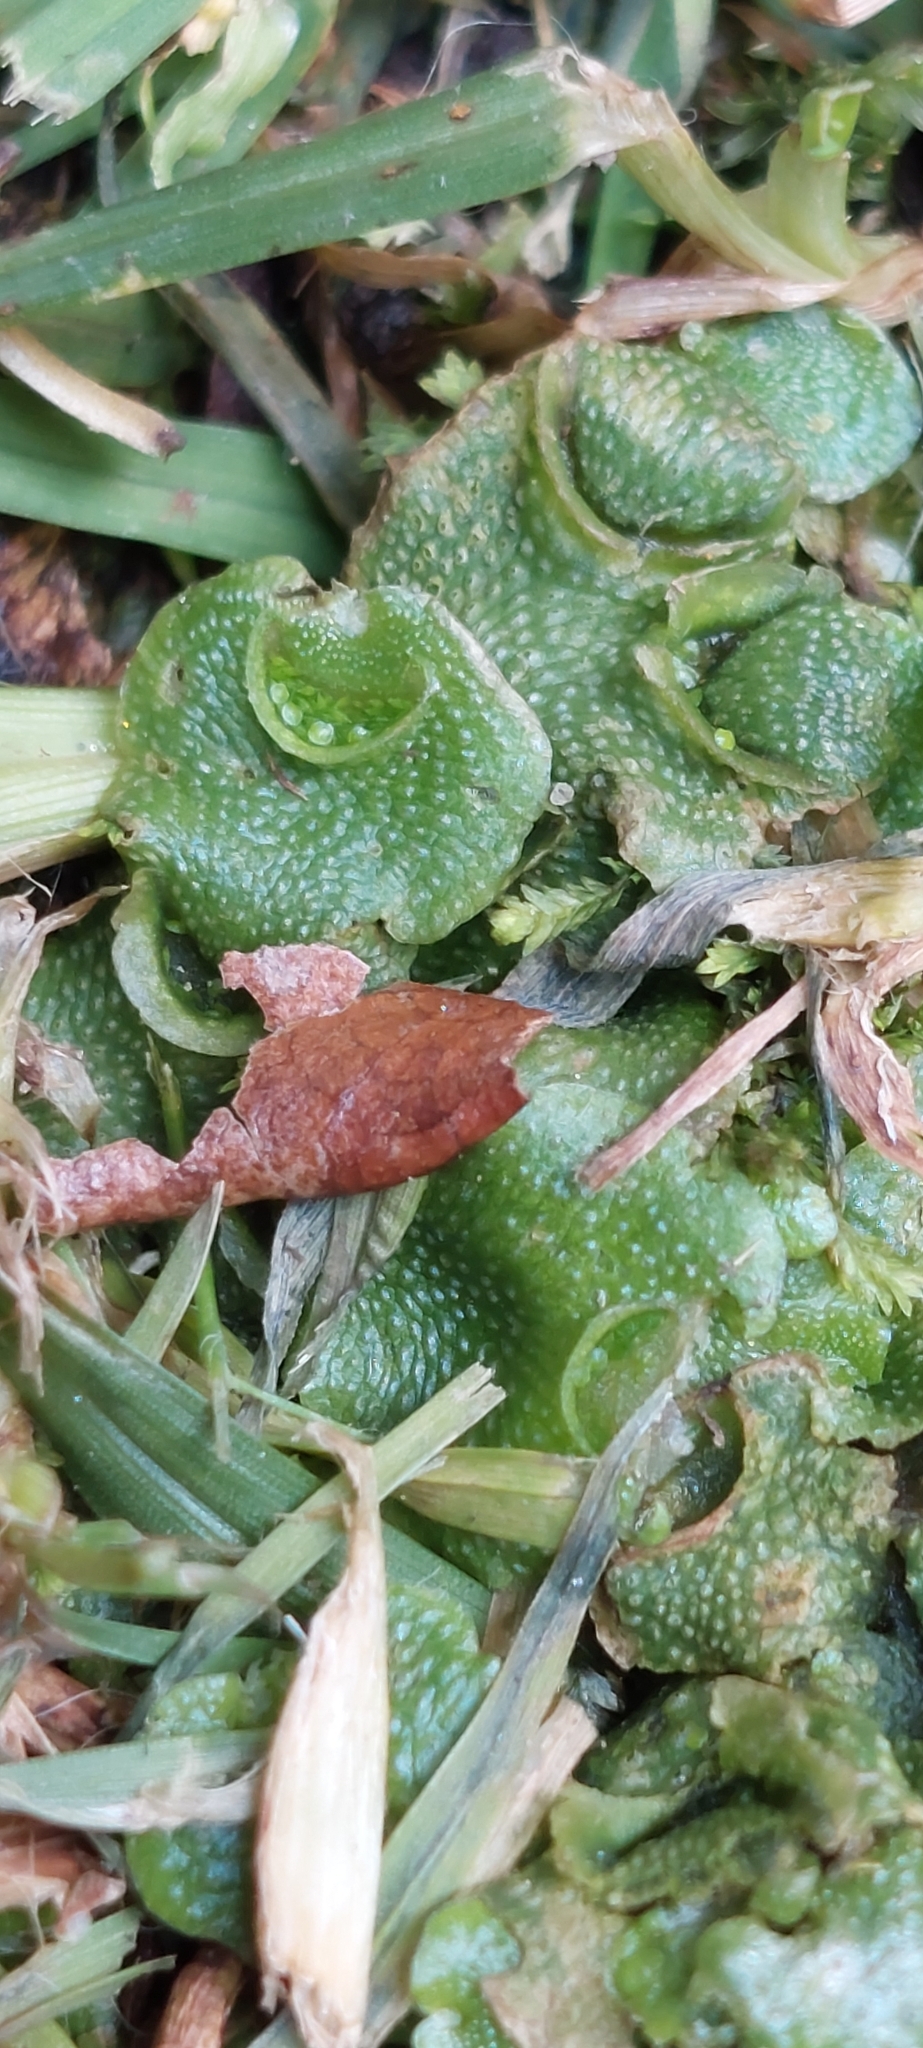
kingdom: Plantae
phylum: Marchantiophyta
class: Marchantiopsida
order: Lunulariales
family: Lunulariaceae
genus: Lunularia
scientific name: Lunularia cruciata
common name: Crescent-cup liverwort
